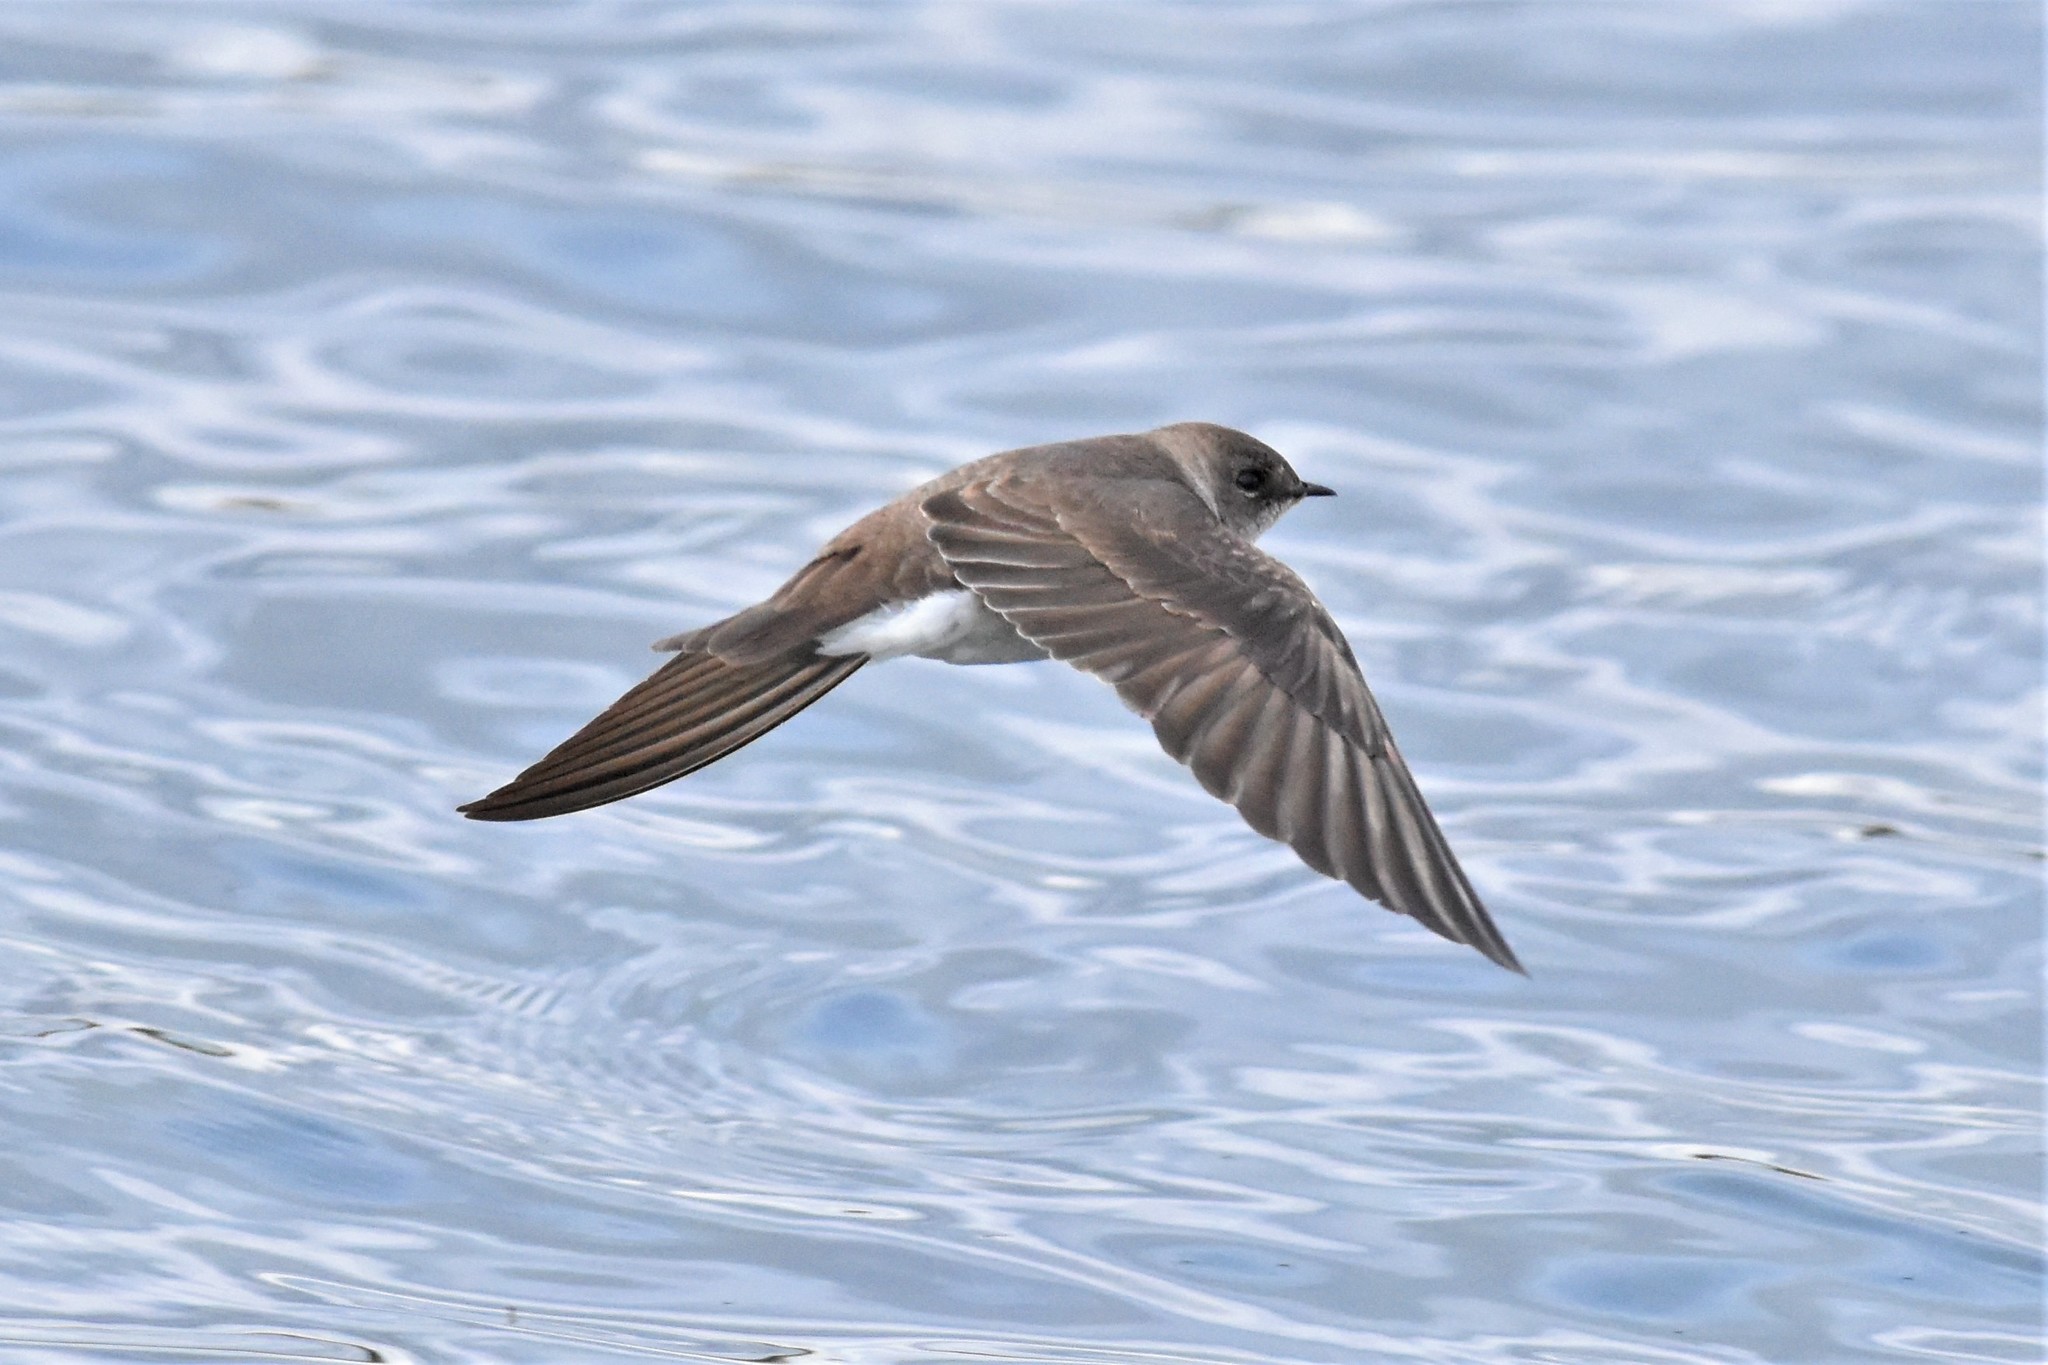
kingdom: Animalia
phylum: Chordata
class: Aves
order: Passeriformes
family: Hirundinidae
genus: Stelgidopteryx
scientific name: Stelgidopteryx serripennis
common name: Northern rough-winged swallow
